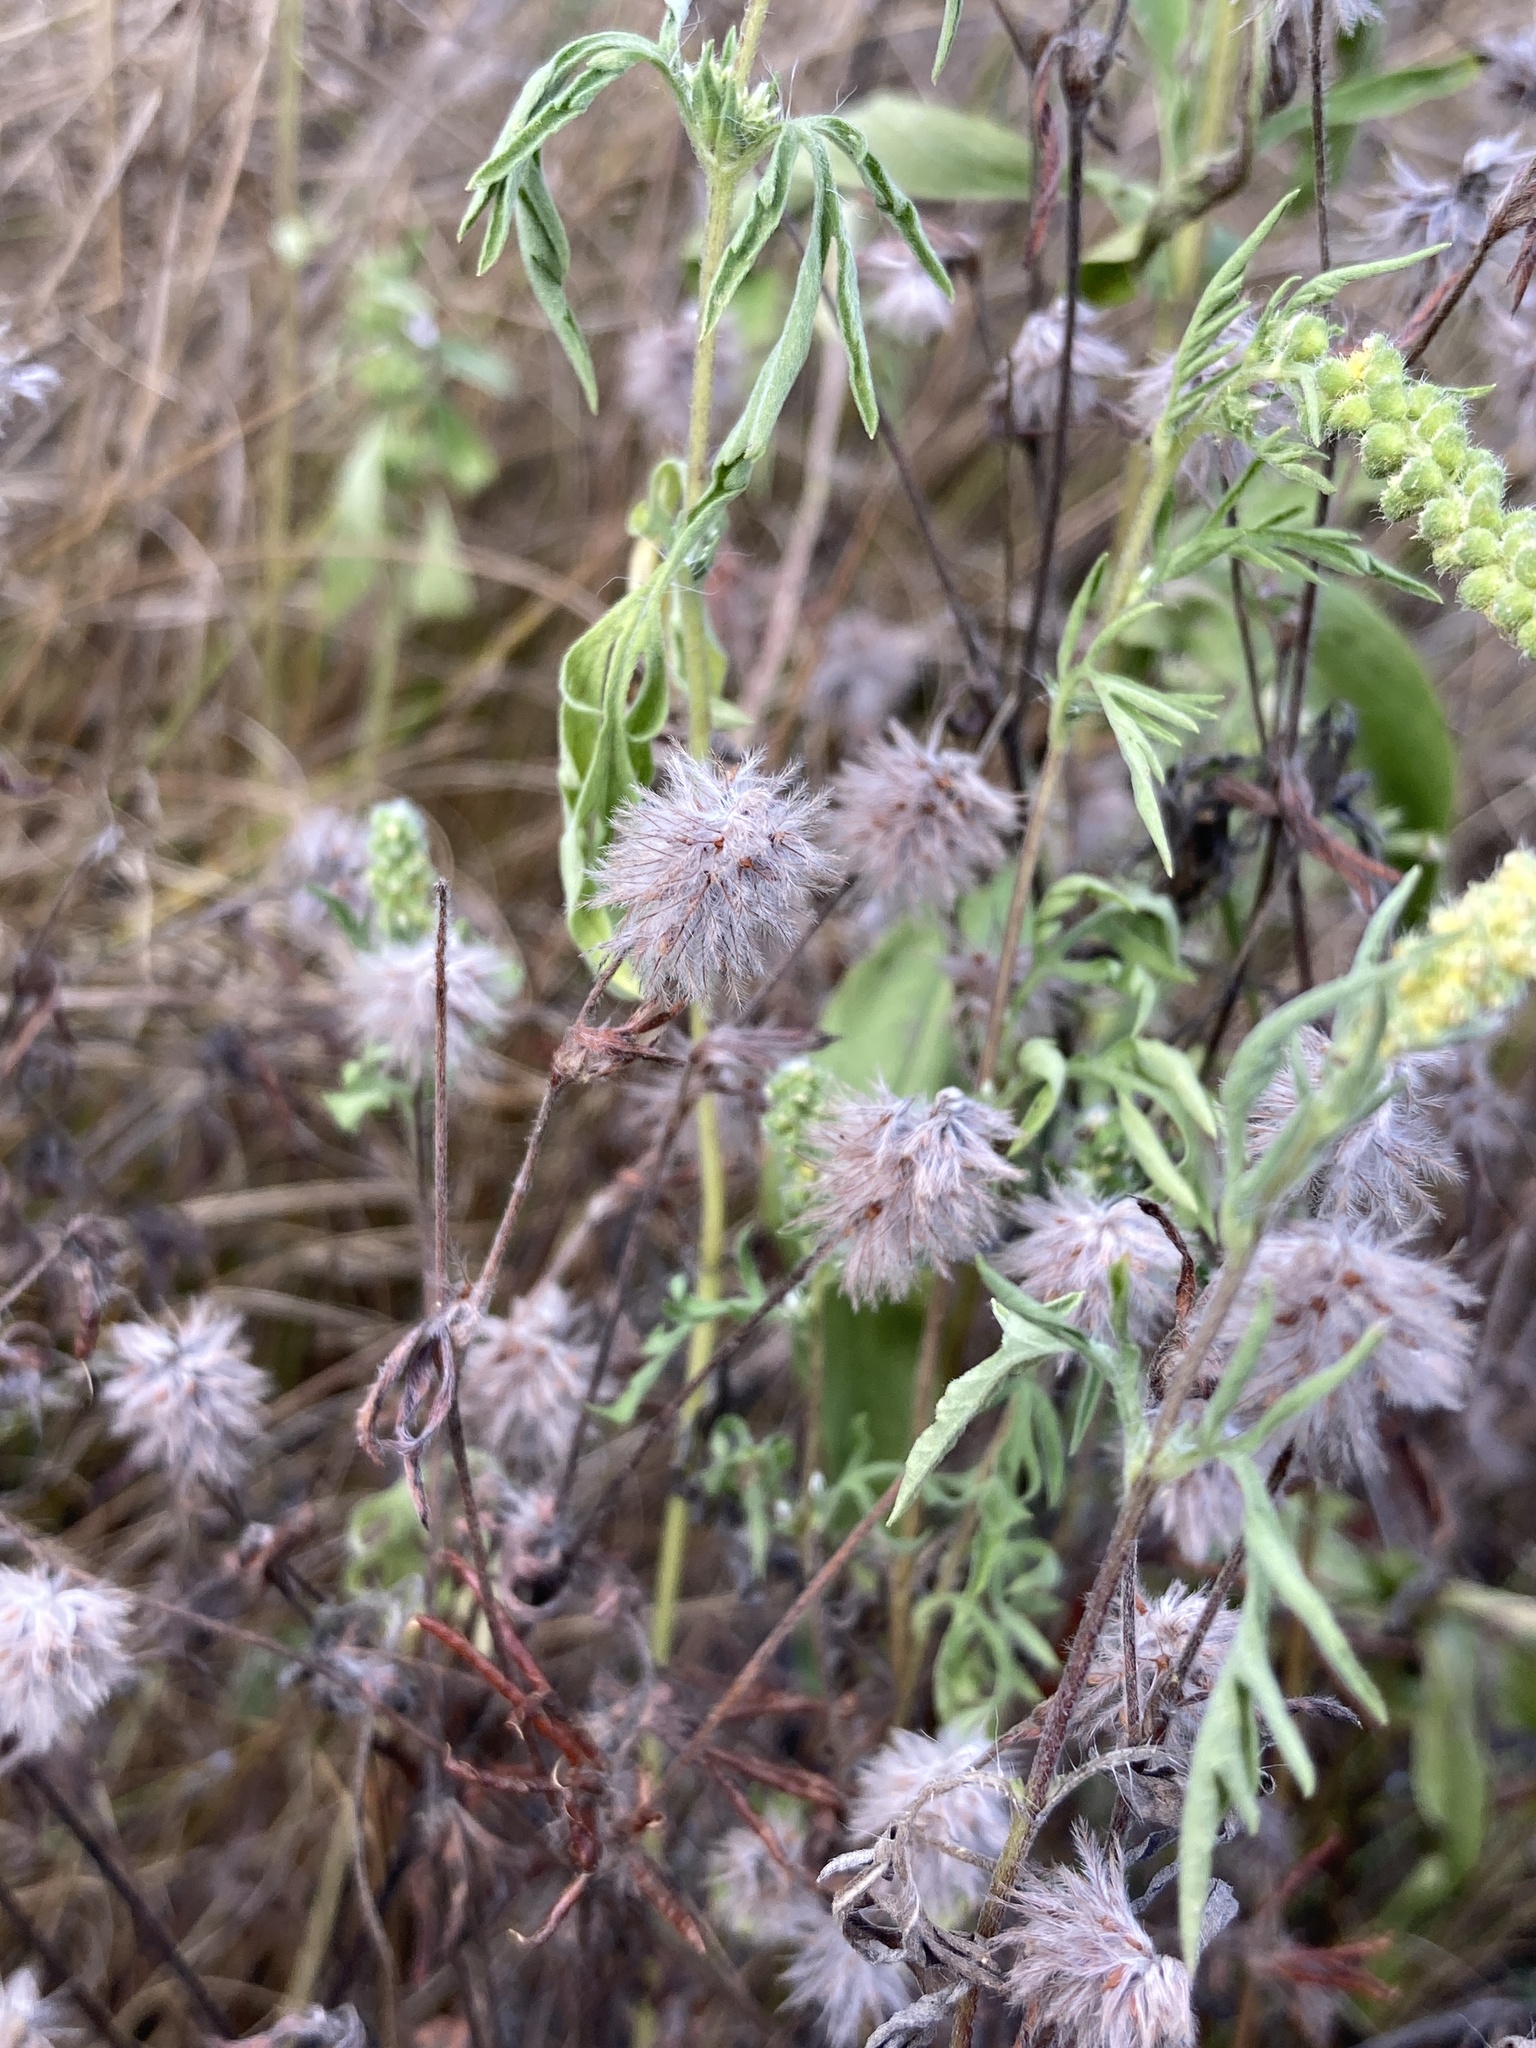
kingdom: Plantae
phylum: Tracheophyta
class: Magnoliopsida
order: Fabales
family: Fabaceae
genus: Trifolium
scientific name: Trifolium arvense
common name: Hare's-foot clover
